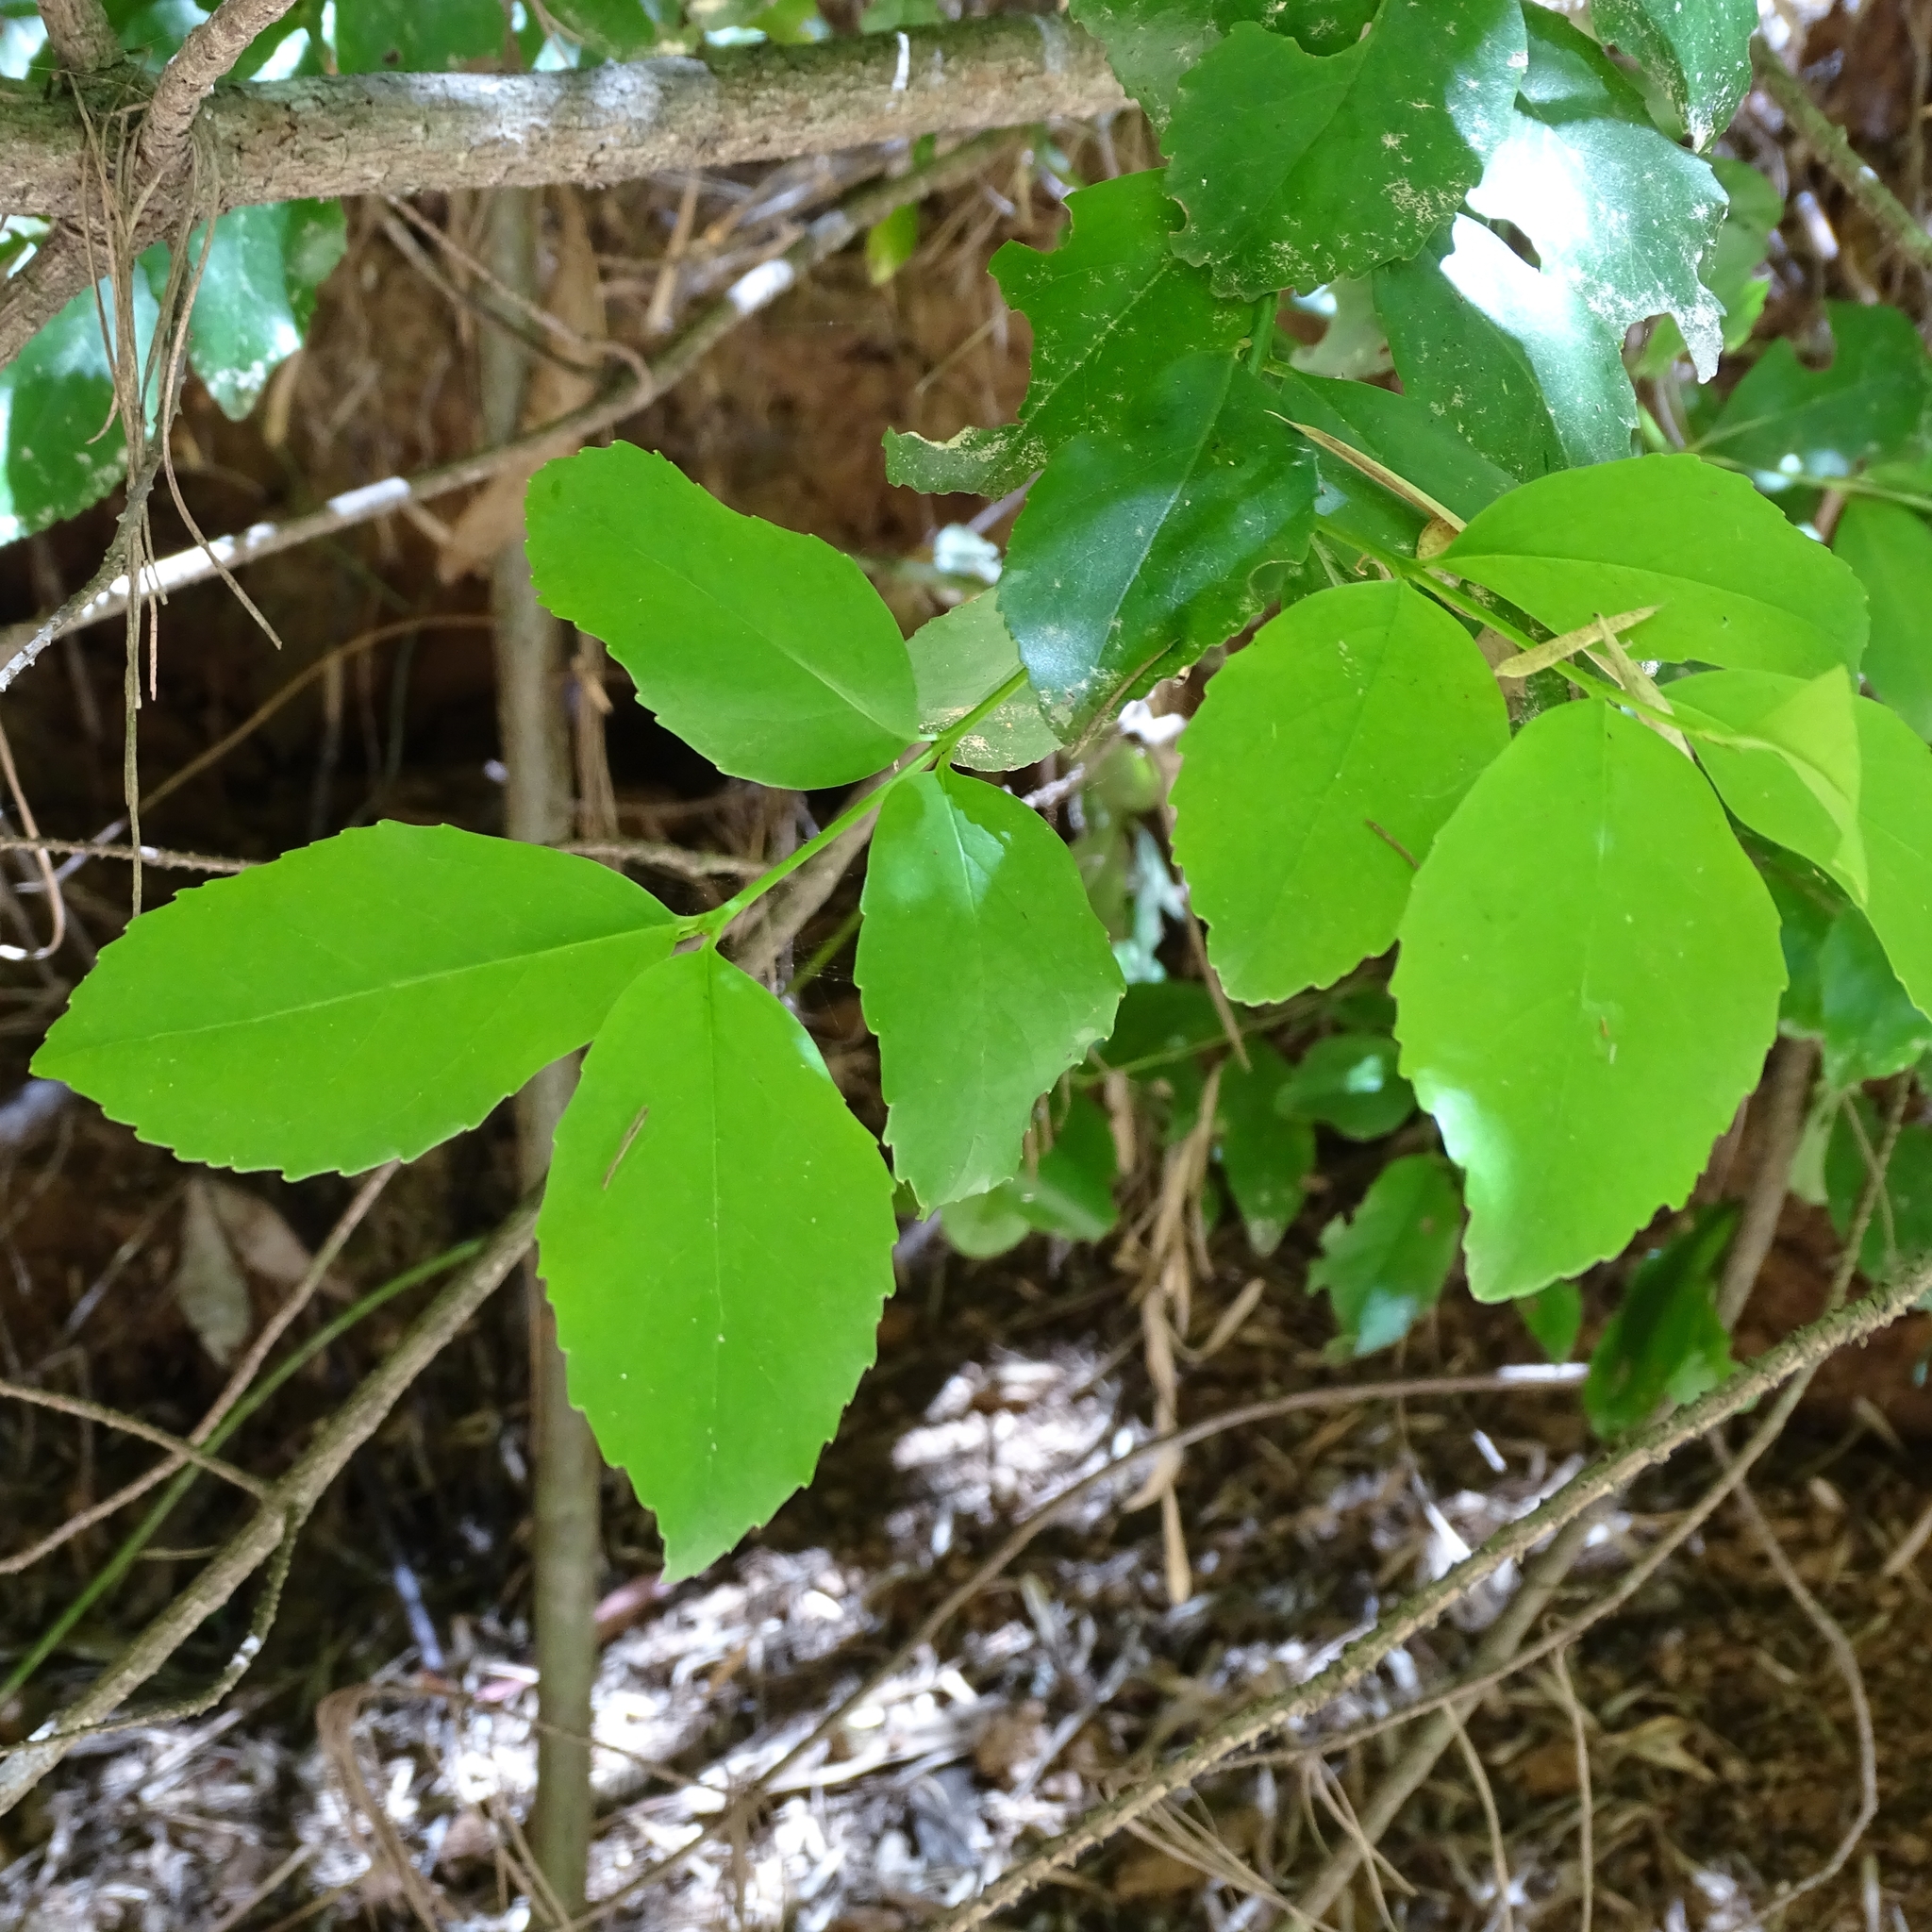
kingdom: Plantae
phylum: Tracheophyta
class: Magnoliopsida
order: Laurales
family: Atherospermataceae
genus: Laurelia
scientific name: Laurelia sempervirens
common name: Chilean laurel
